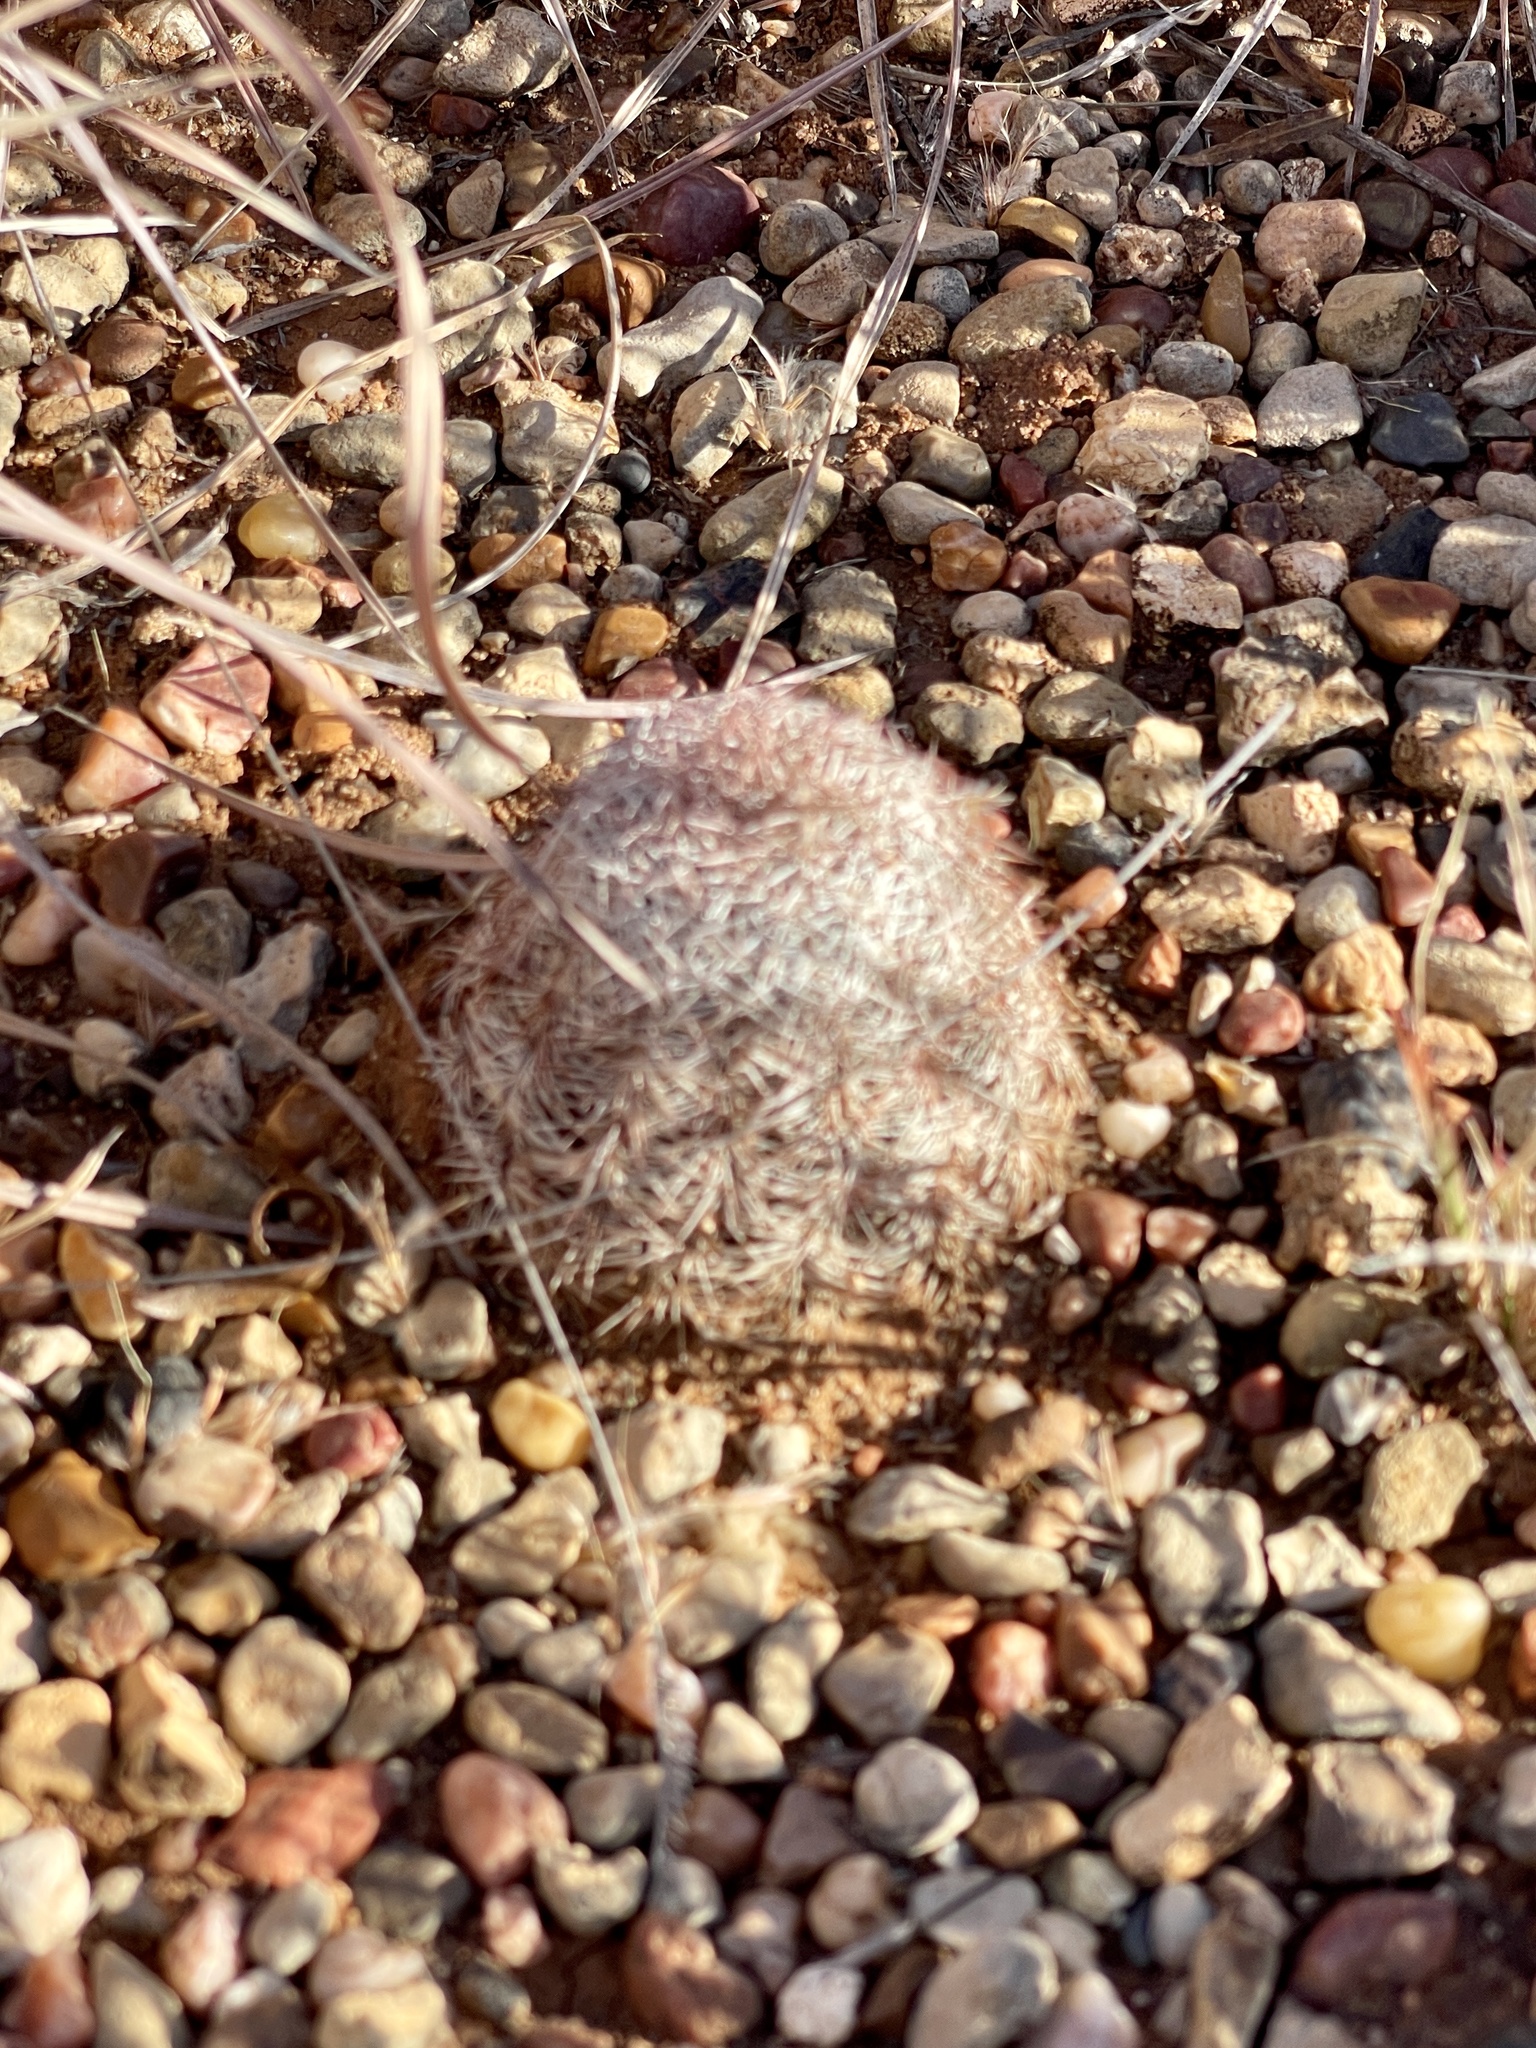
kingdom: Plantae
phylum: Tracheophyta
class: Magnoliopsida
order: Caryophyllales
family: Cactaceae
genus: Echinocereus
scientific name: Echinocereus reichenbachii
